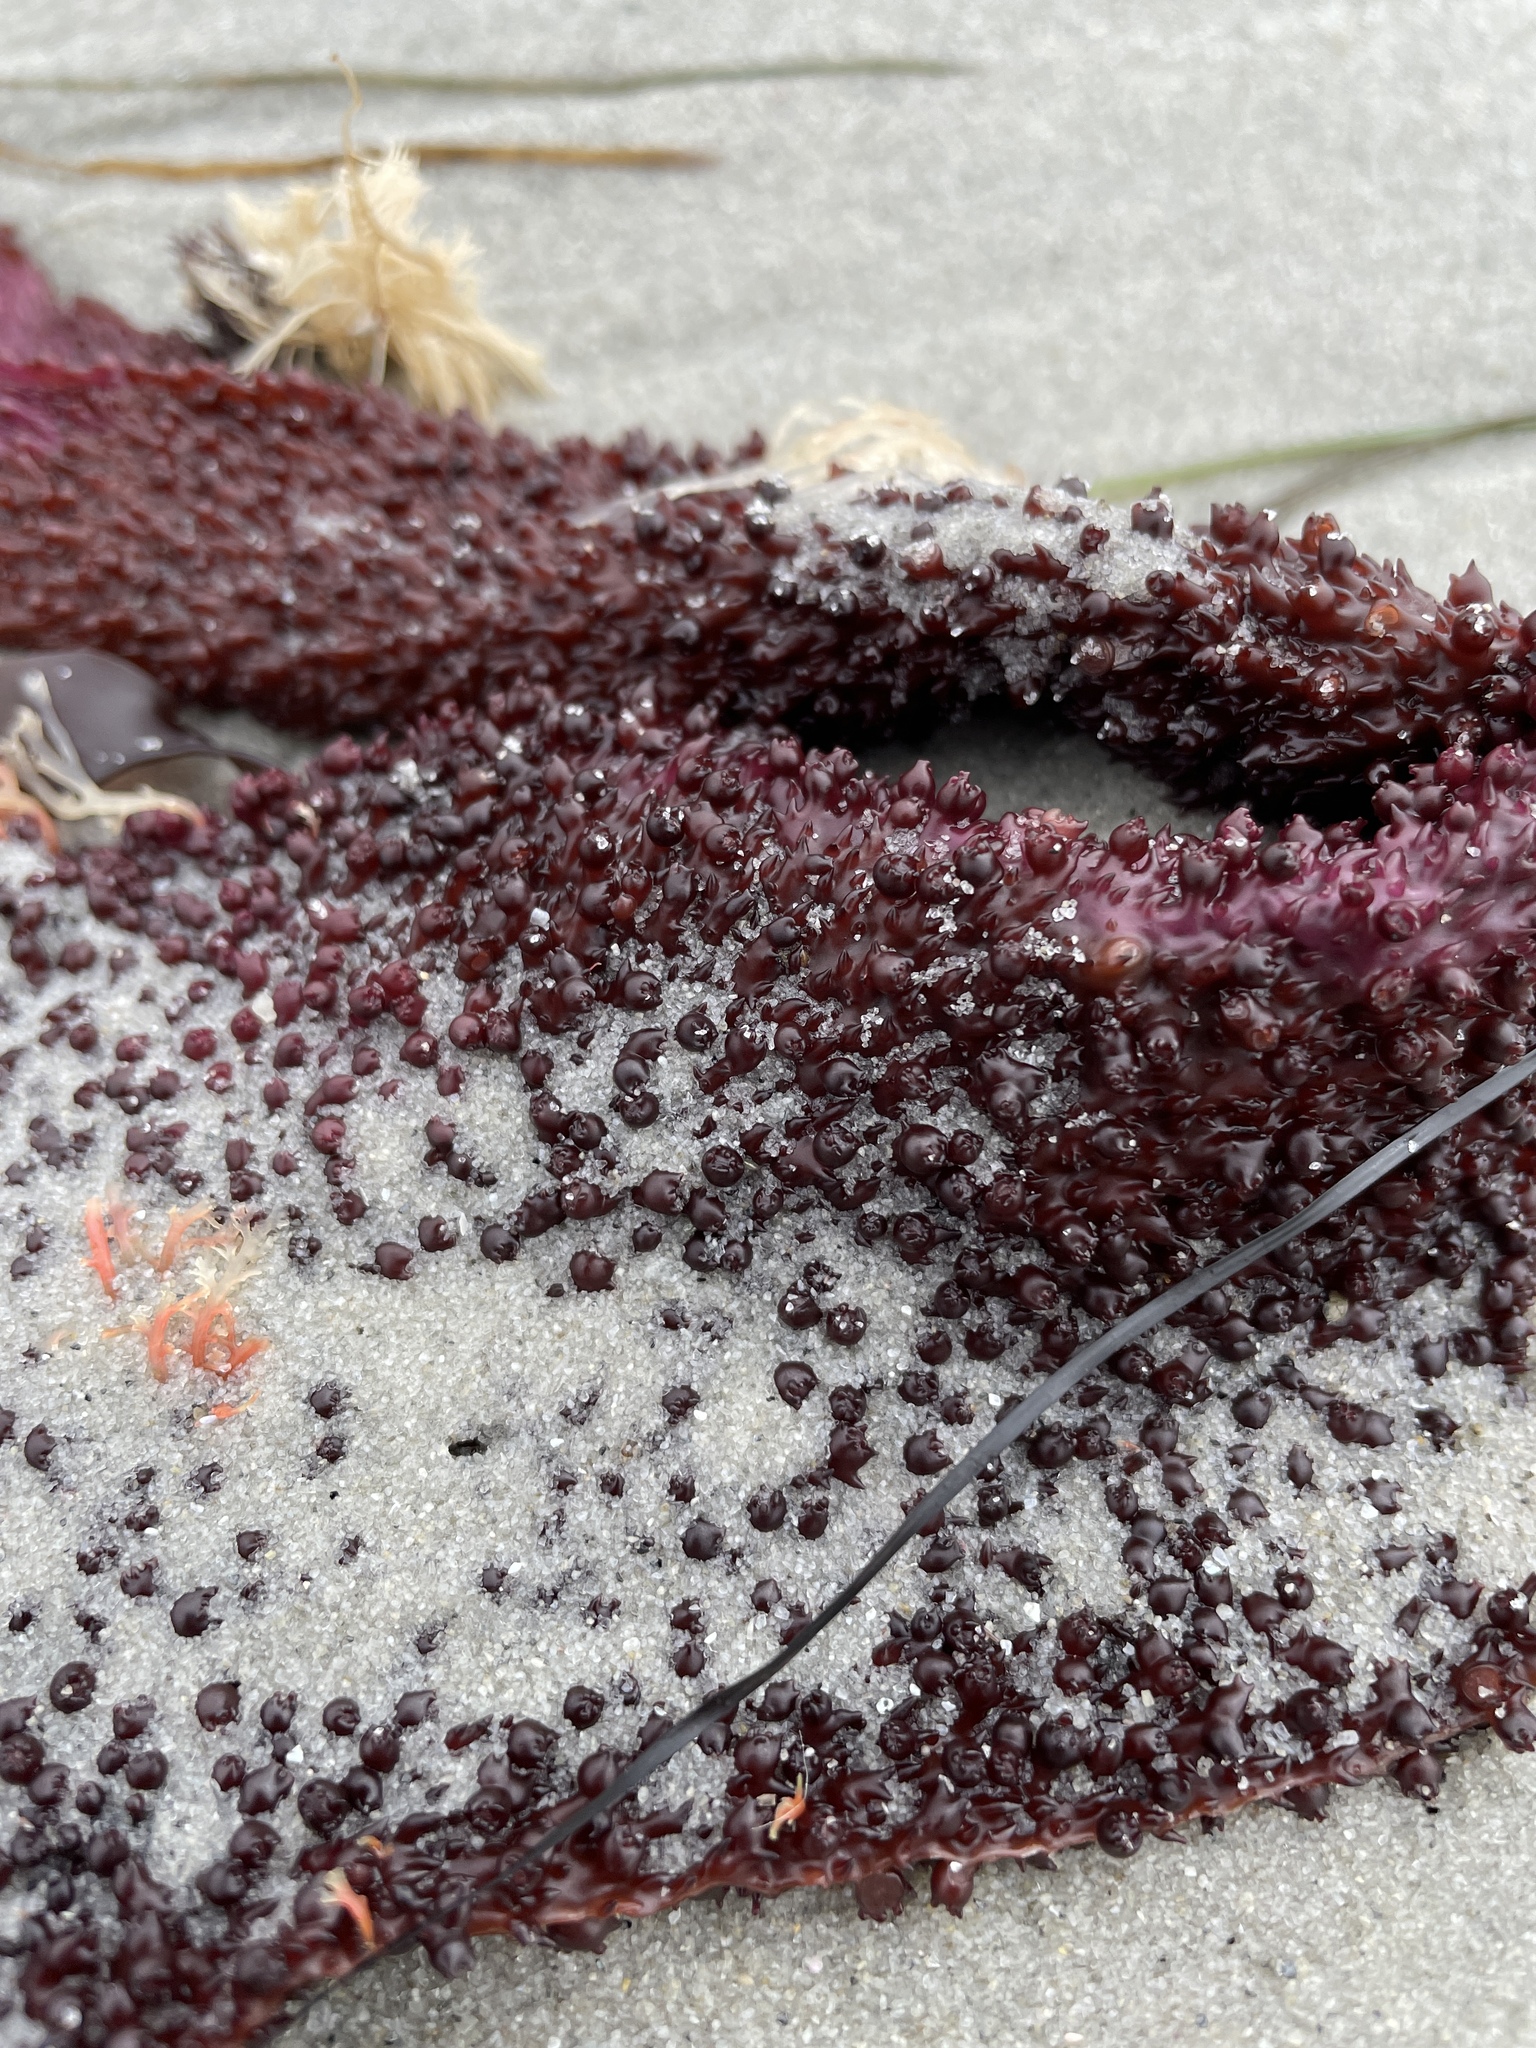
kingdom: Plantae
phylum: Rhodophyta
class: Florideophyceae
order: Gigartinales
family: Gigartinaceae
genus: Chondracanthus
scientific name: Chondracanthus exasperatus
